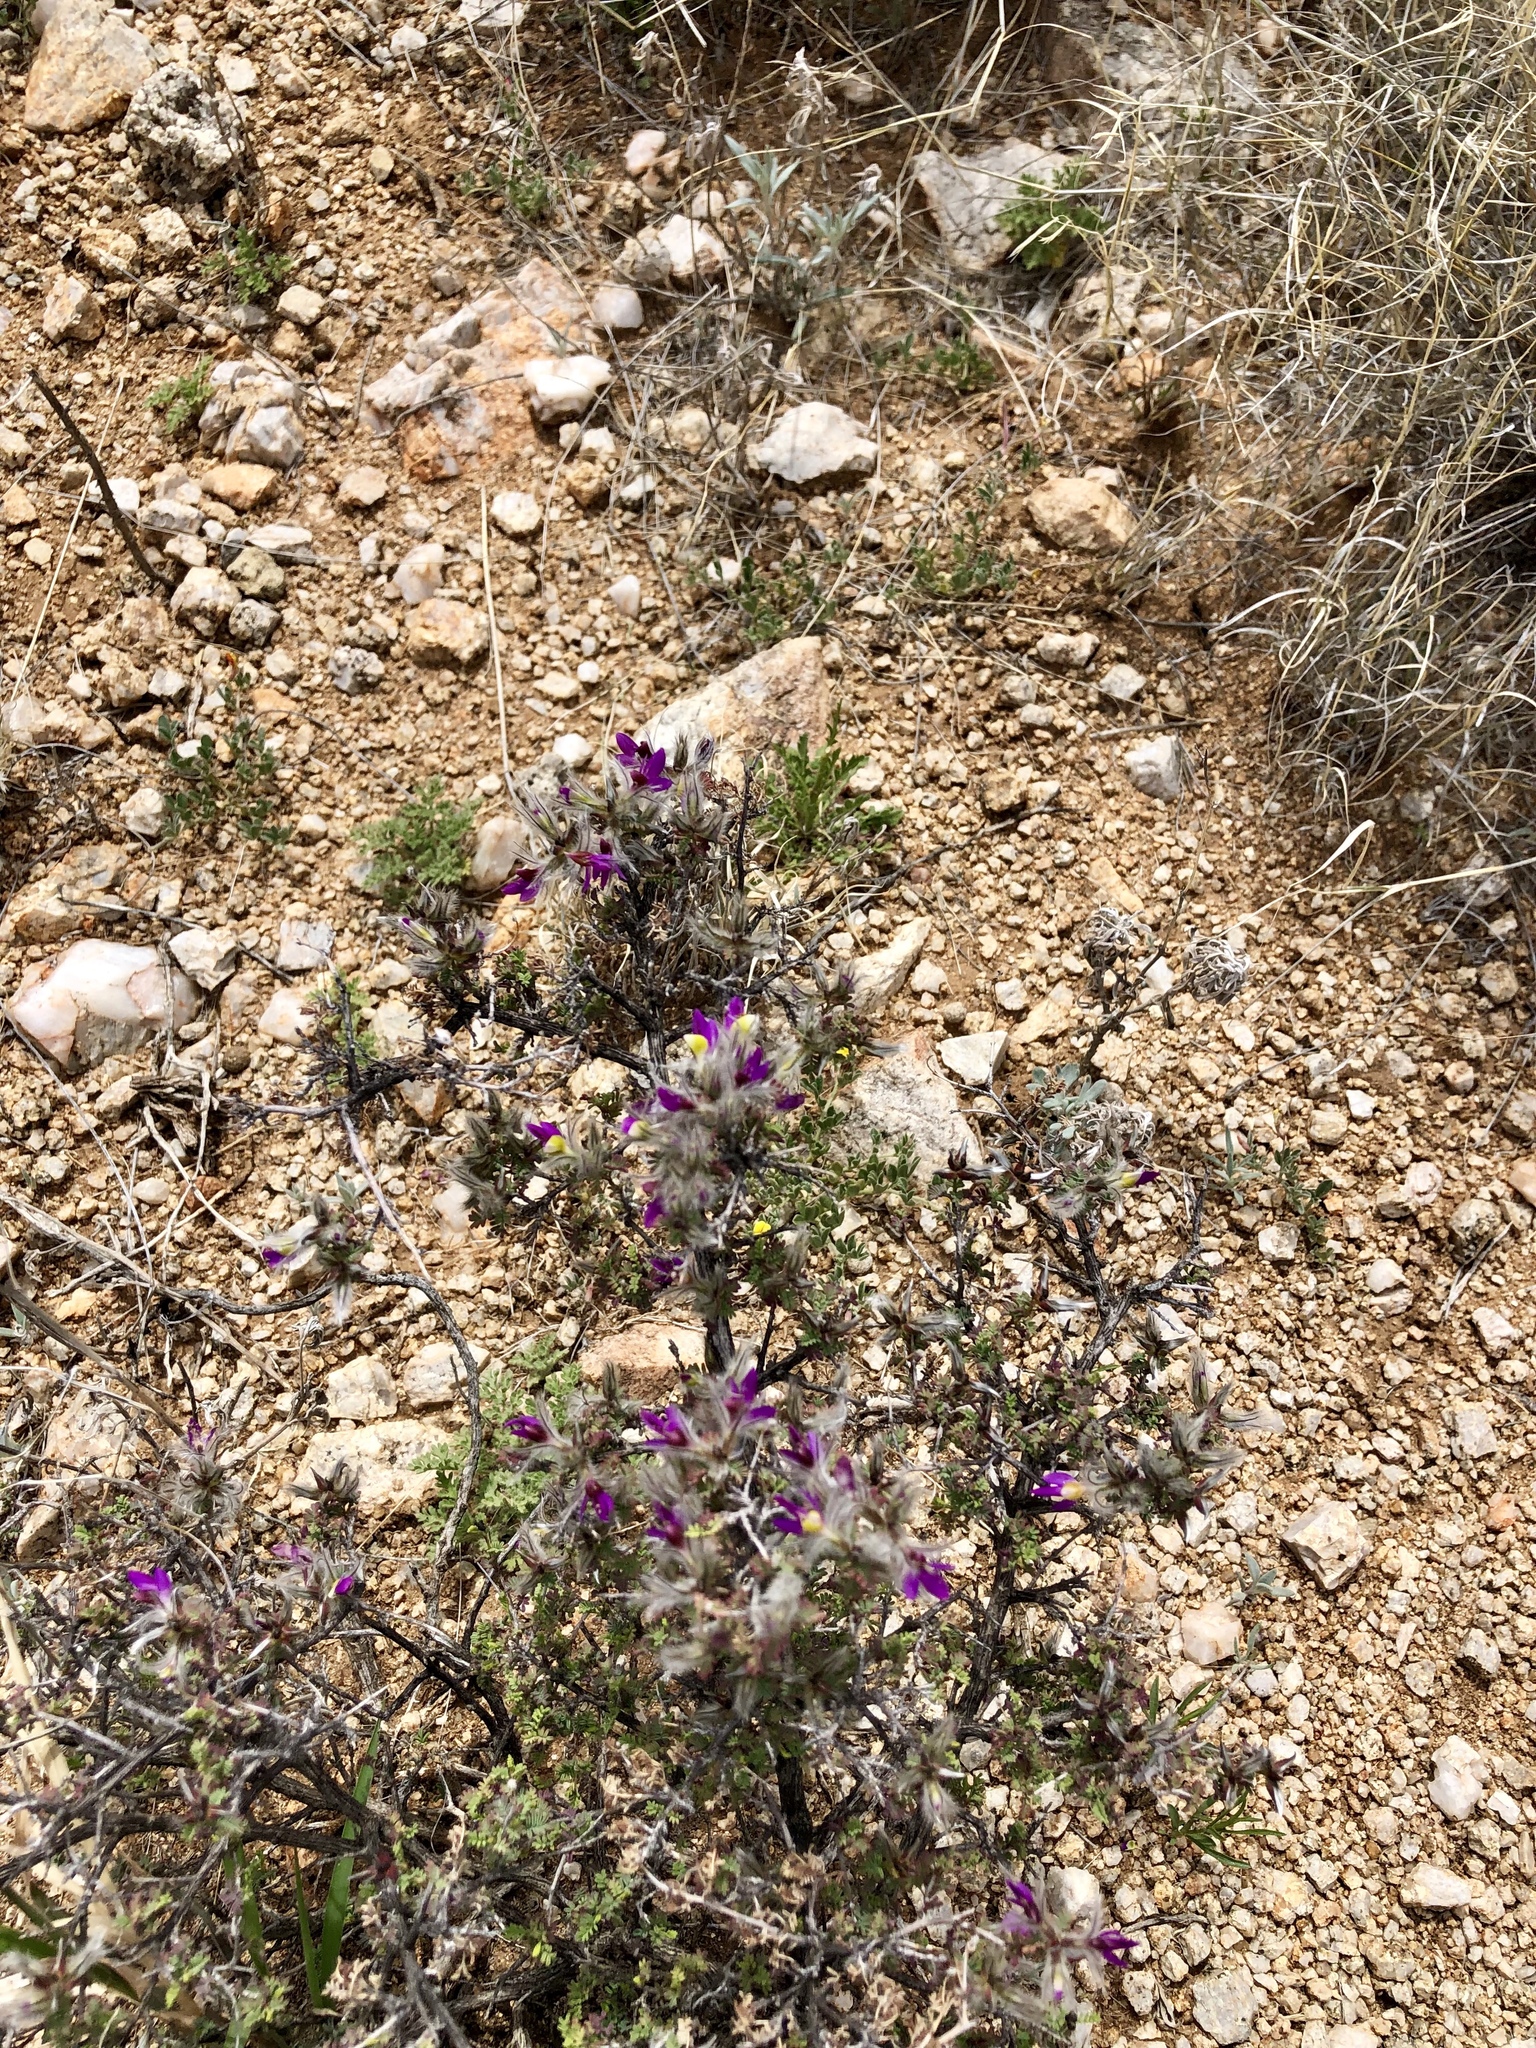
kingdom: Plantae
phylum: Tracheophyta
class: Magnoliopsida
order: Fabales
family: Fabaceae
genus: Dalea
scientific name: Dalea formosa
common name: Feather-plume dalea
